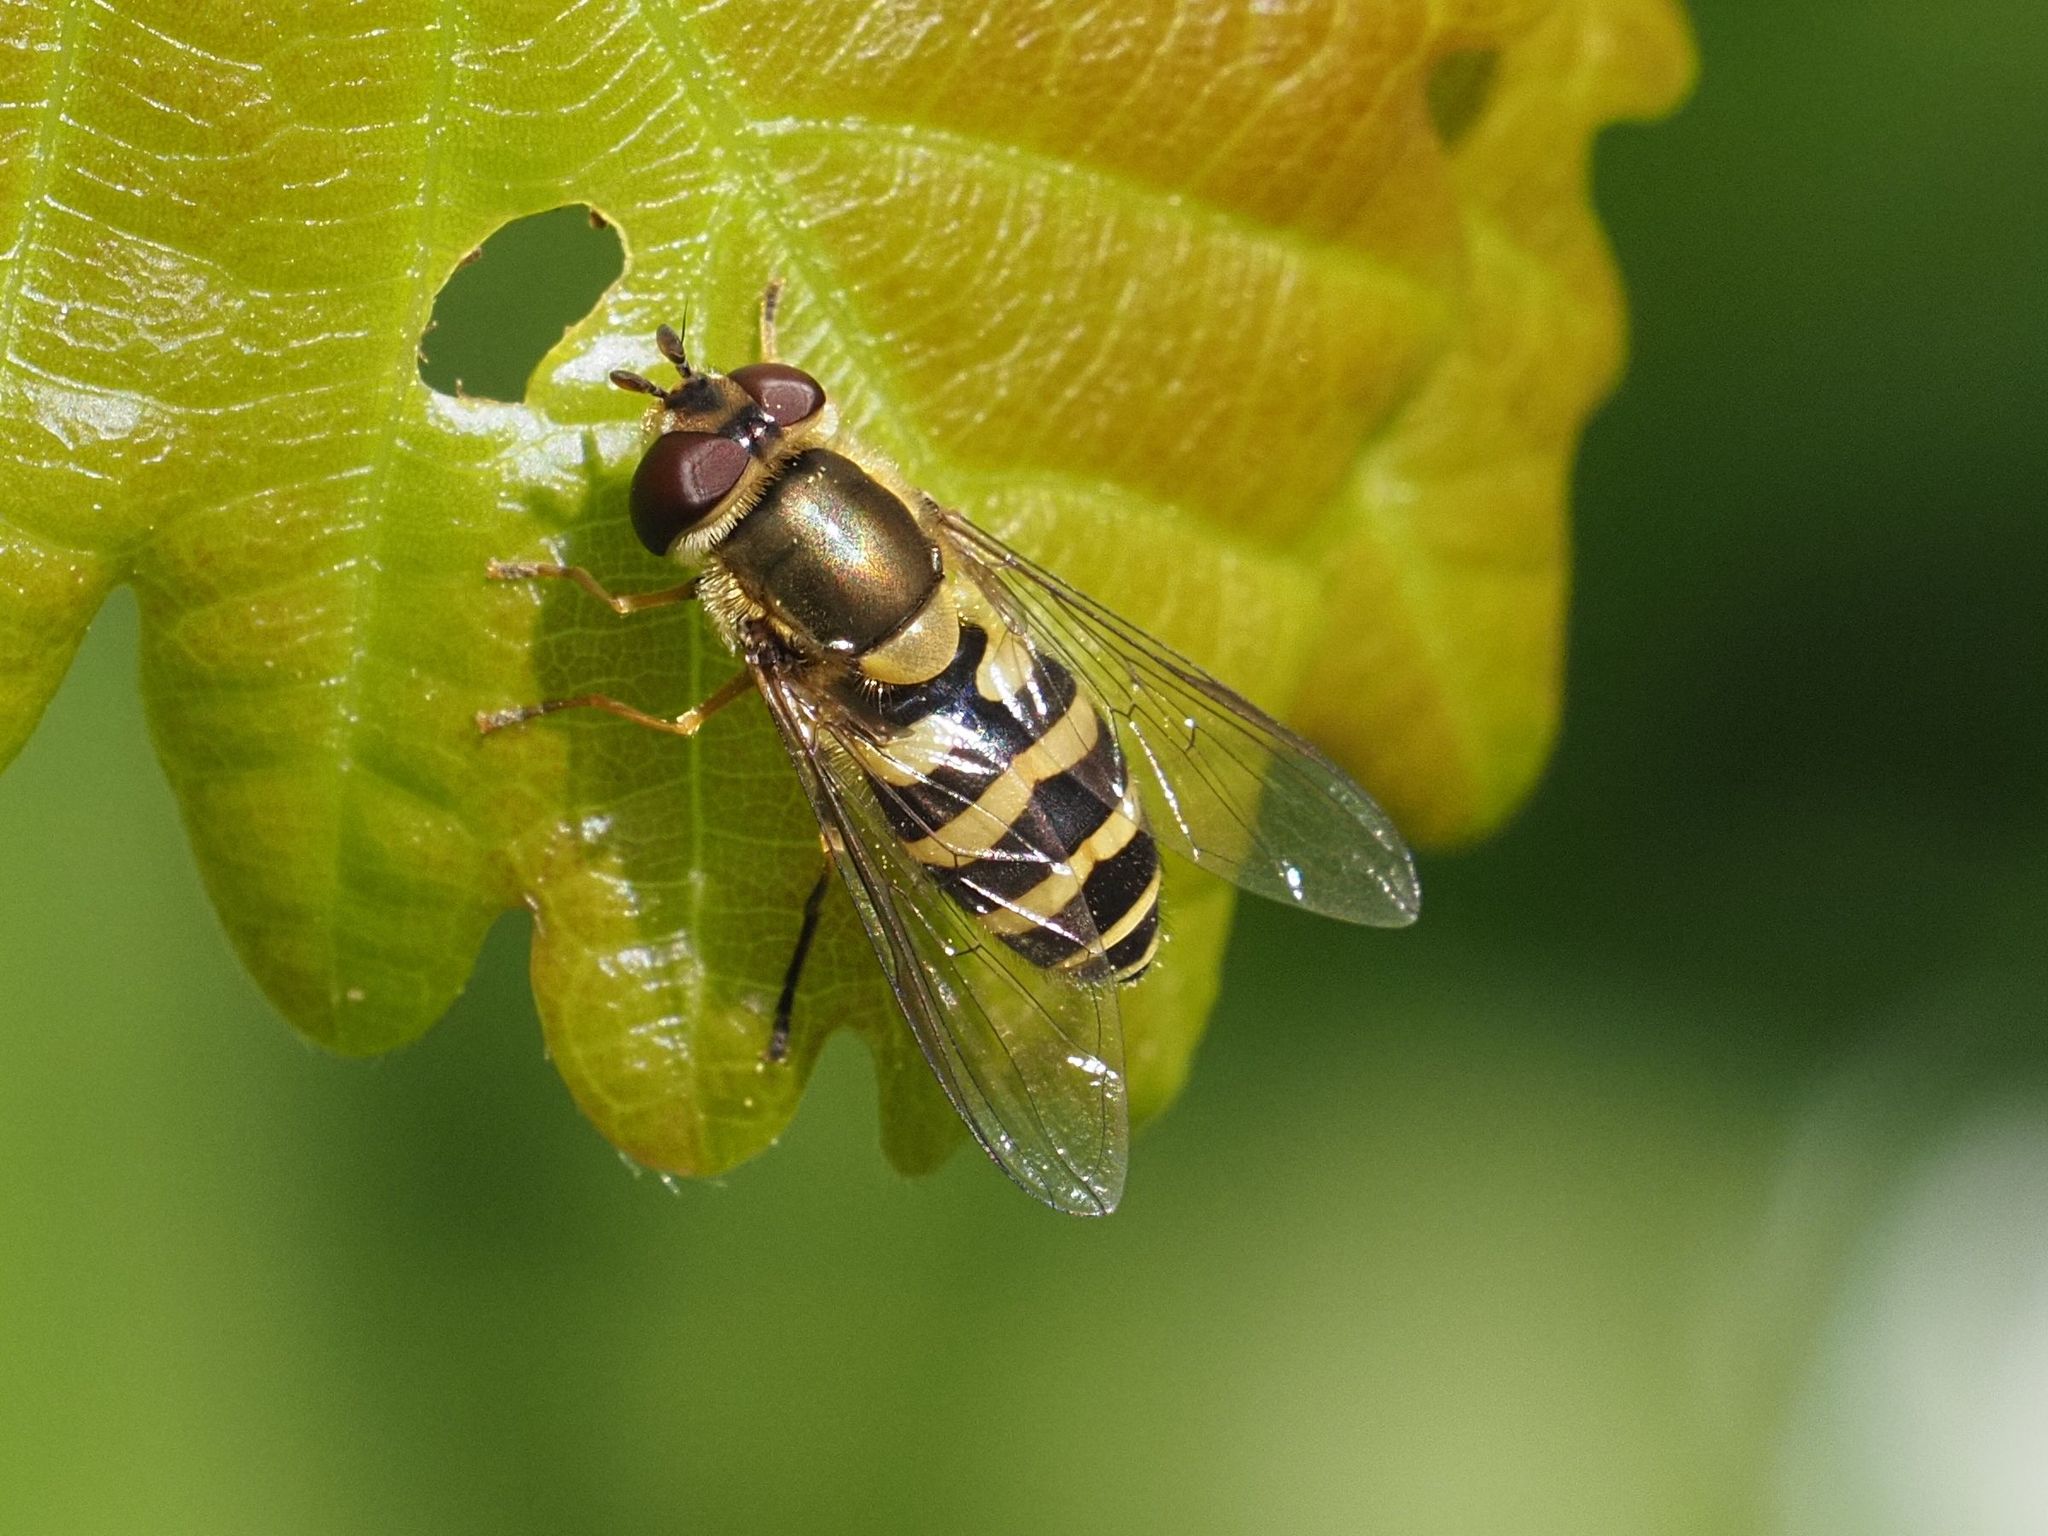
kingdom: Animalia
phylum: Arthropoda
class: Insecta
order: Diptera
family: Syrphidae
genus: Syrphus
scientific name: Syrphus
